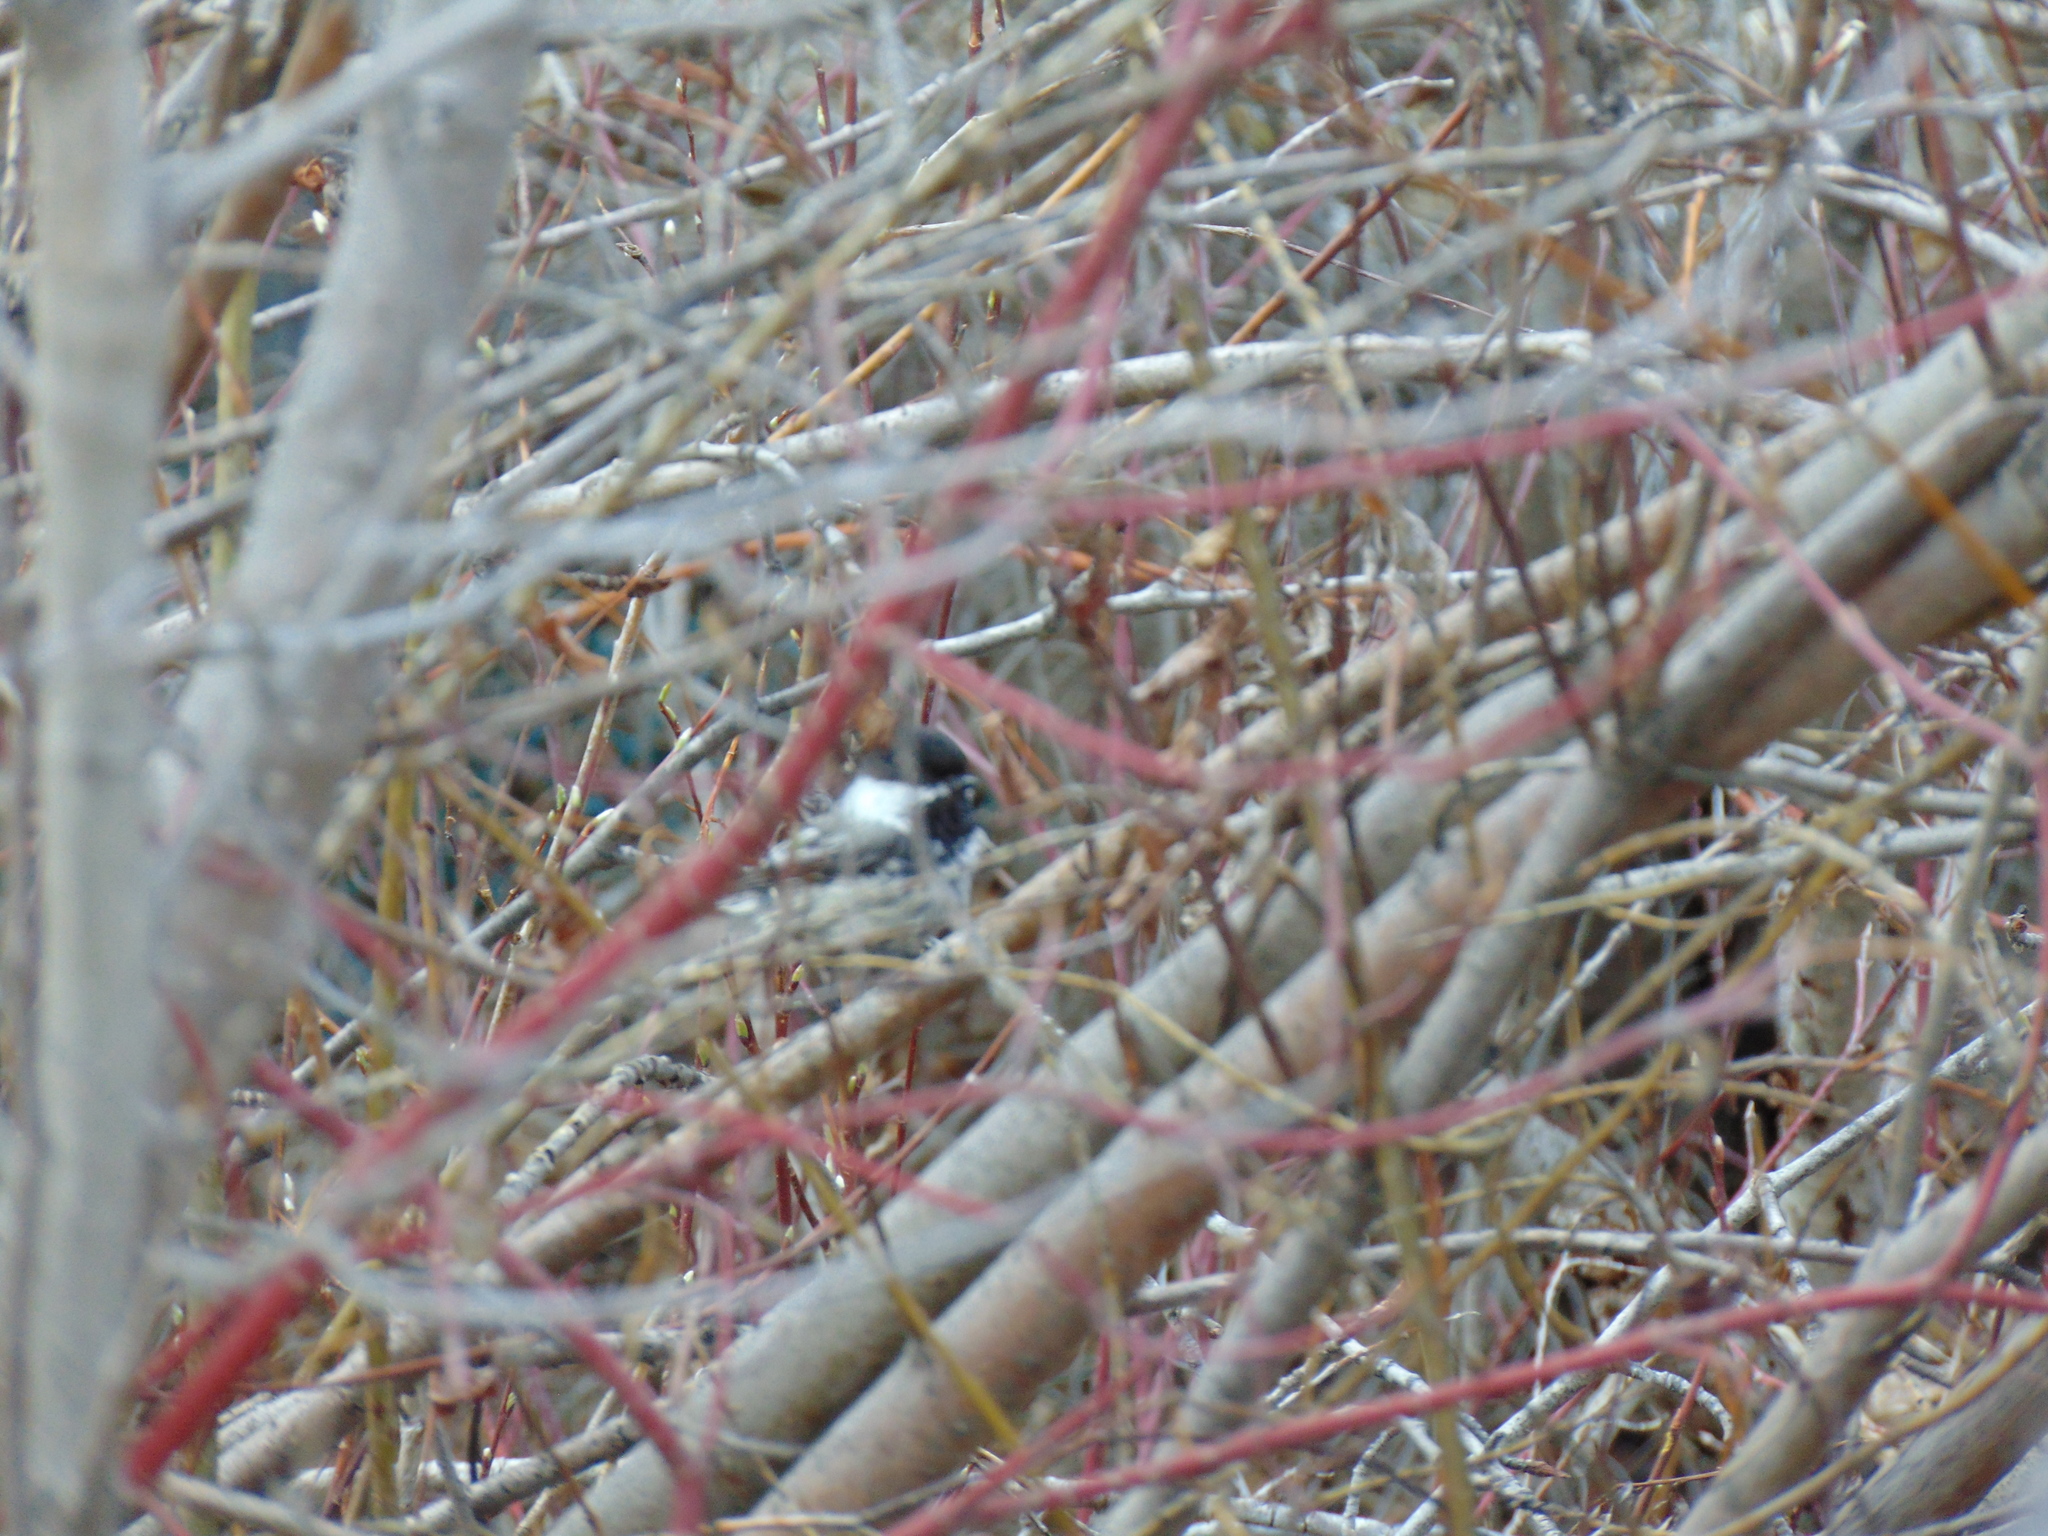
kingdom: Animalia
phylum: Chordata
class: Aves
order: Passeriformes
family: Paridae
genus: Poecile
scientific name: Poecile atricapillus
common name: Black-capped chickadee
